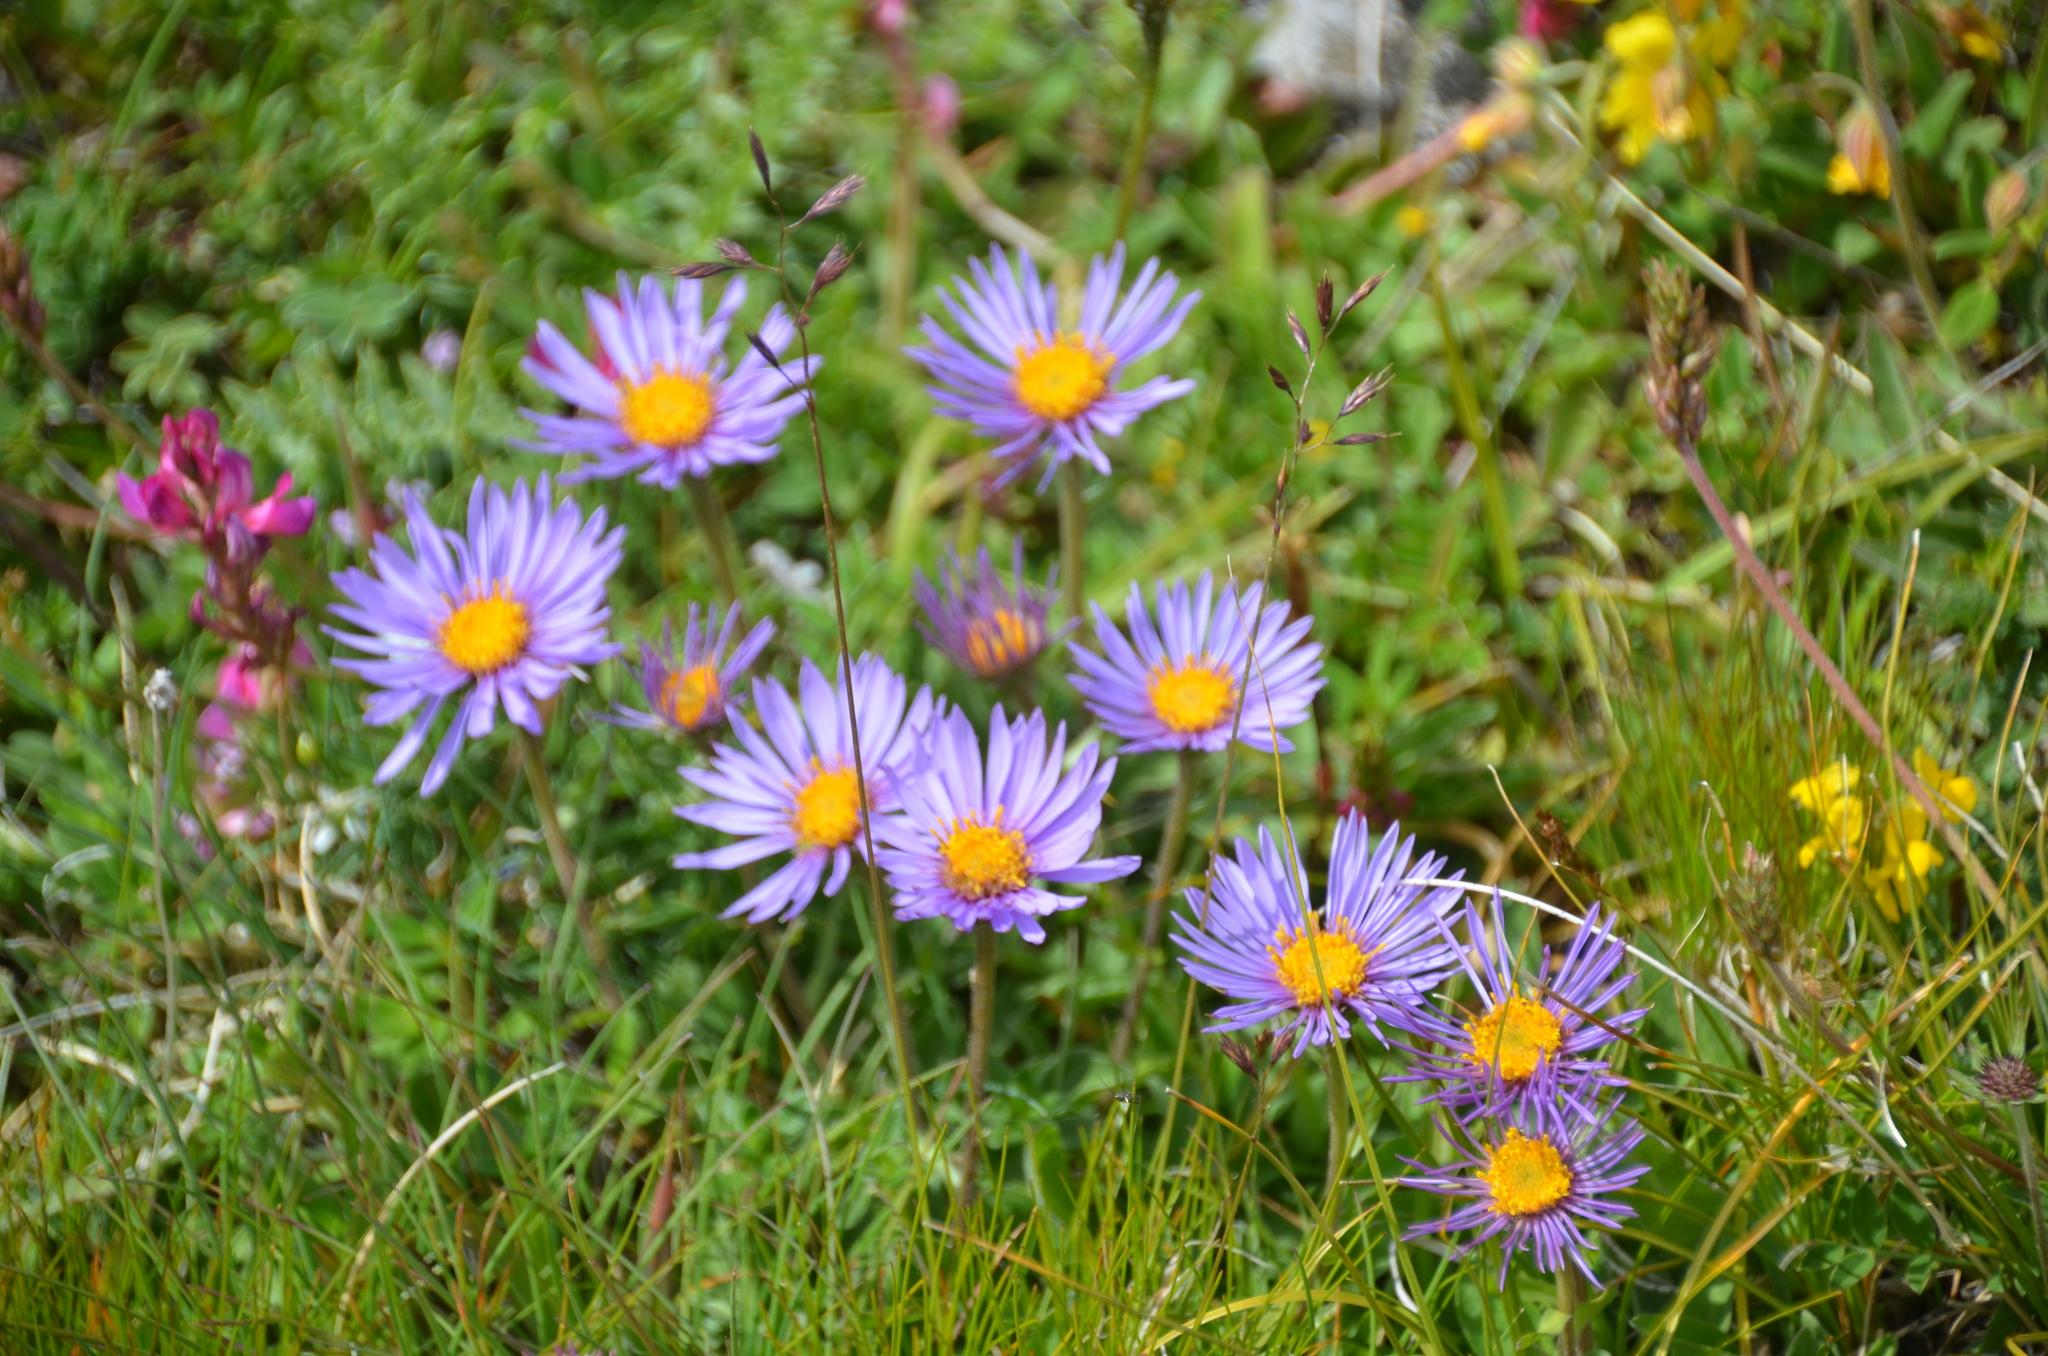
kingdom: Plantae
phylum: Tracheophyta
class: Magnoliopsida
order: Asterales
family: Asteraceae
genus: Aster
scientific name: Aster alpinus
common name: Alpine aster
